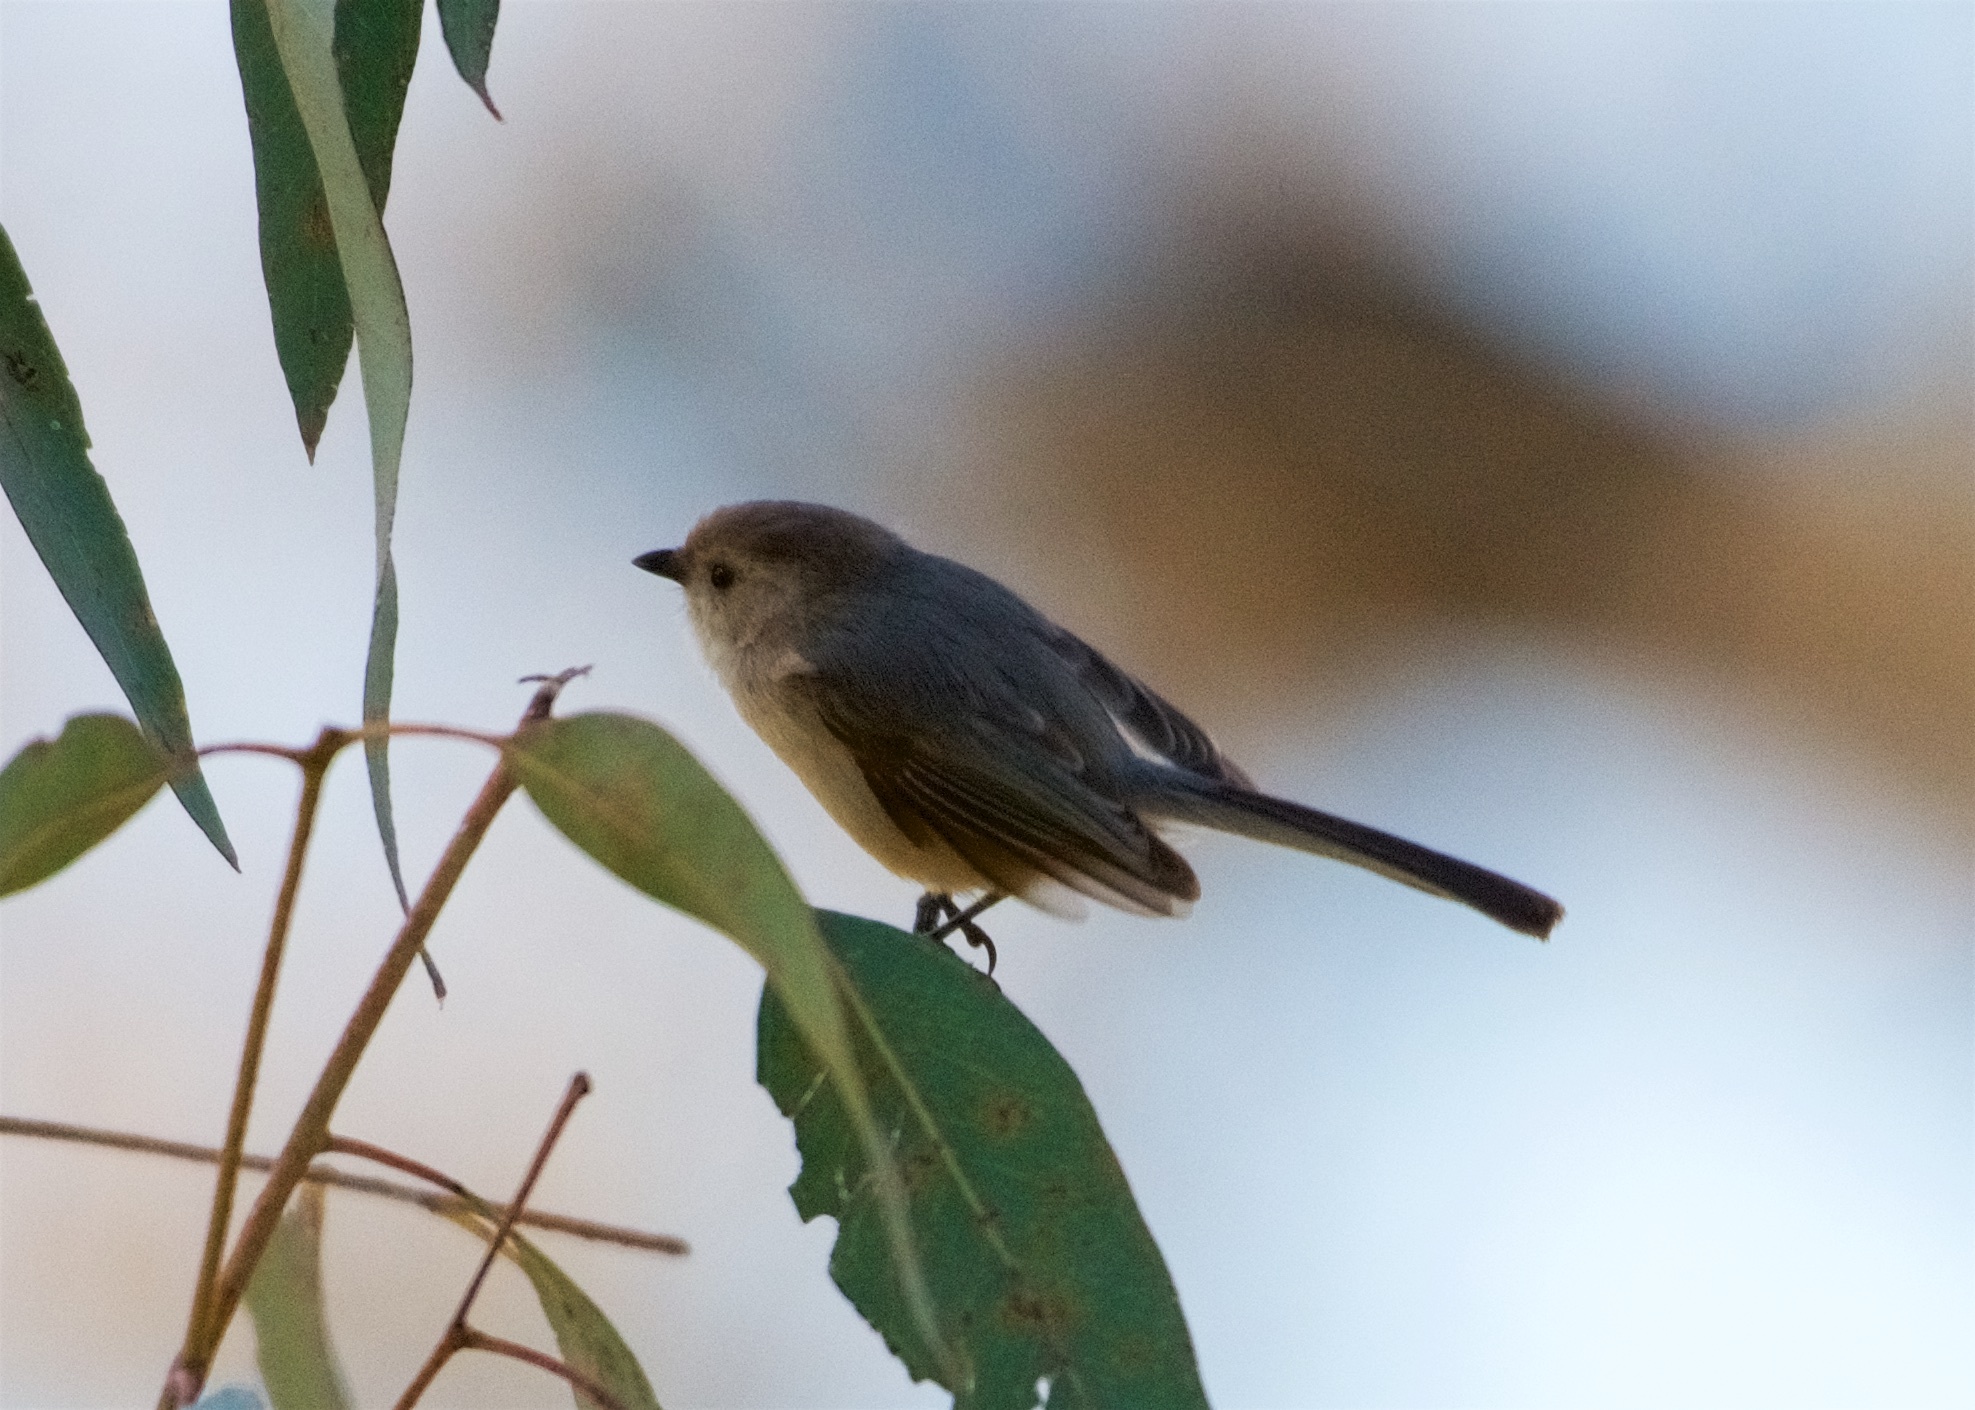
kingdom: Animalia
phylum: Chordata
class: Aves
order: Passeriformes
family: Aegithalidae
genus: Psaltriparus
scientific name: Psaltriparus minimus
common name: American bushtit
